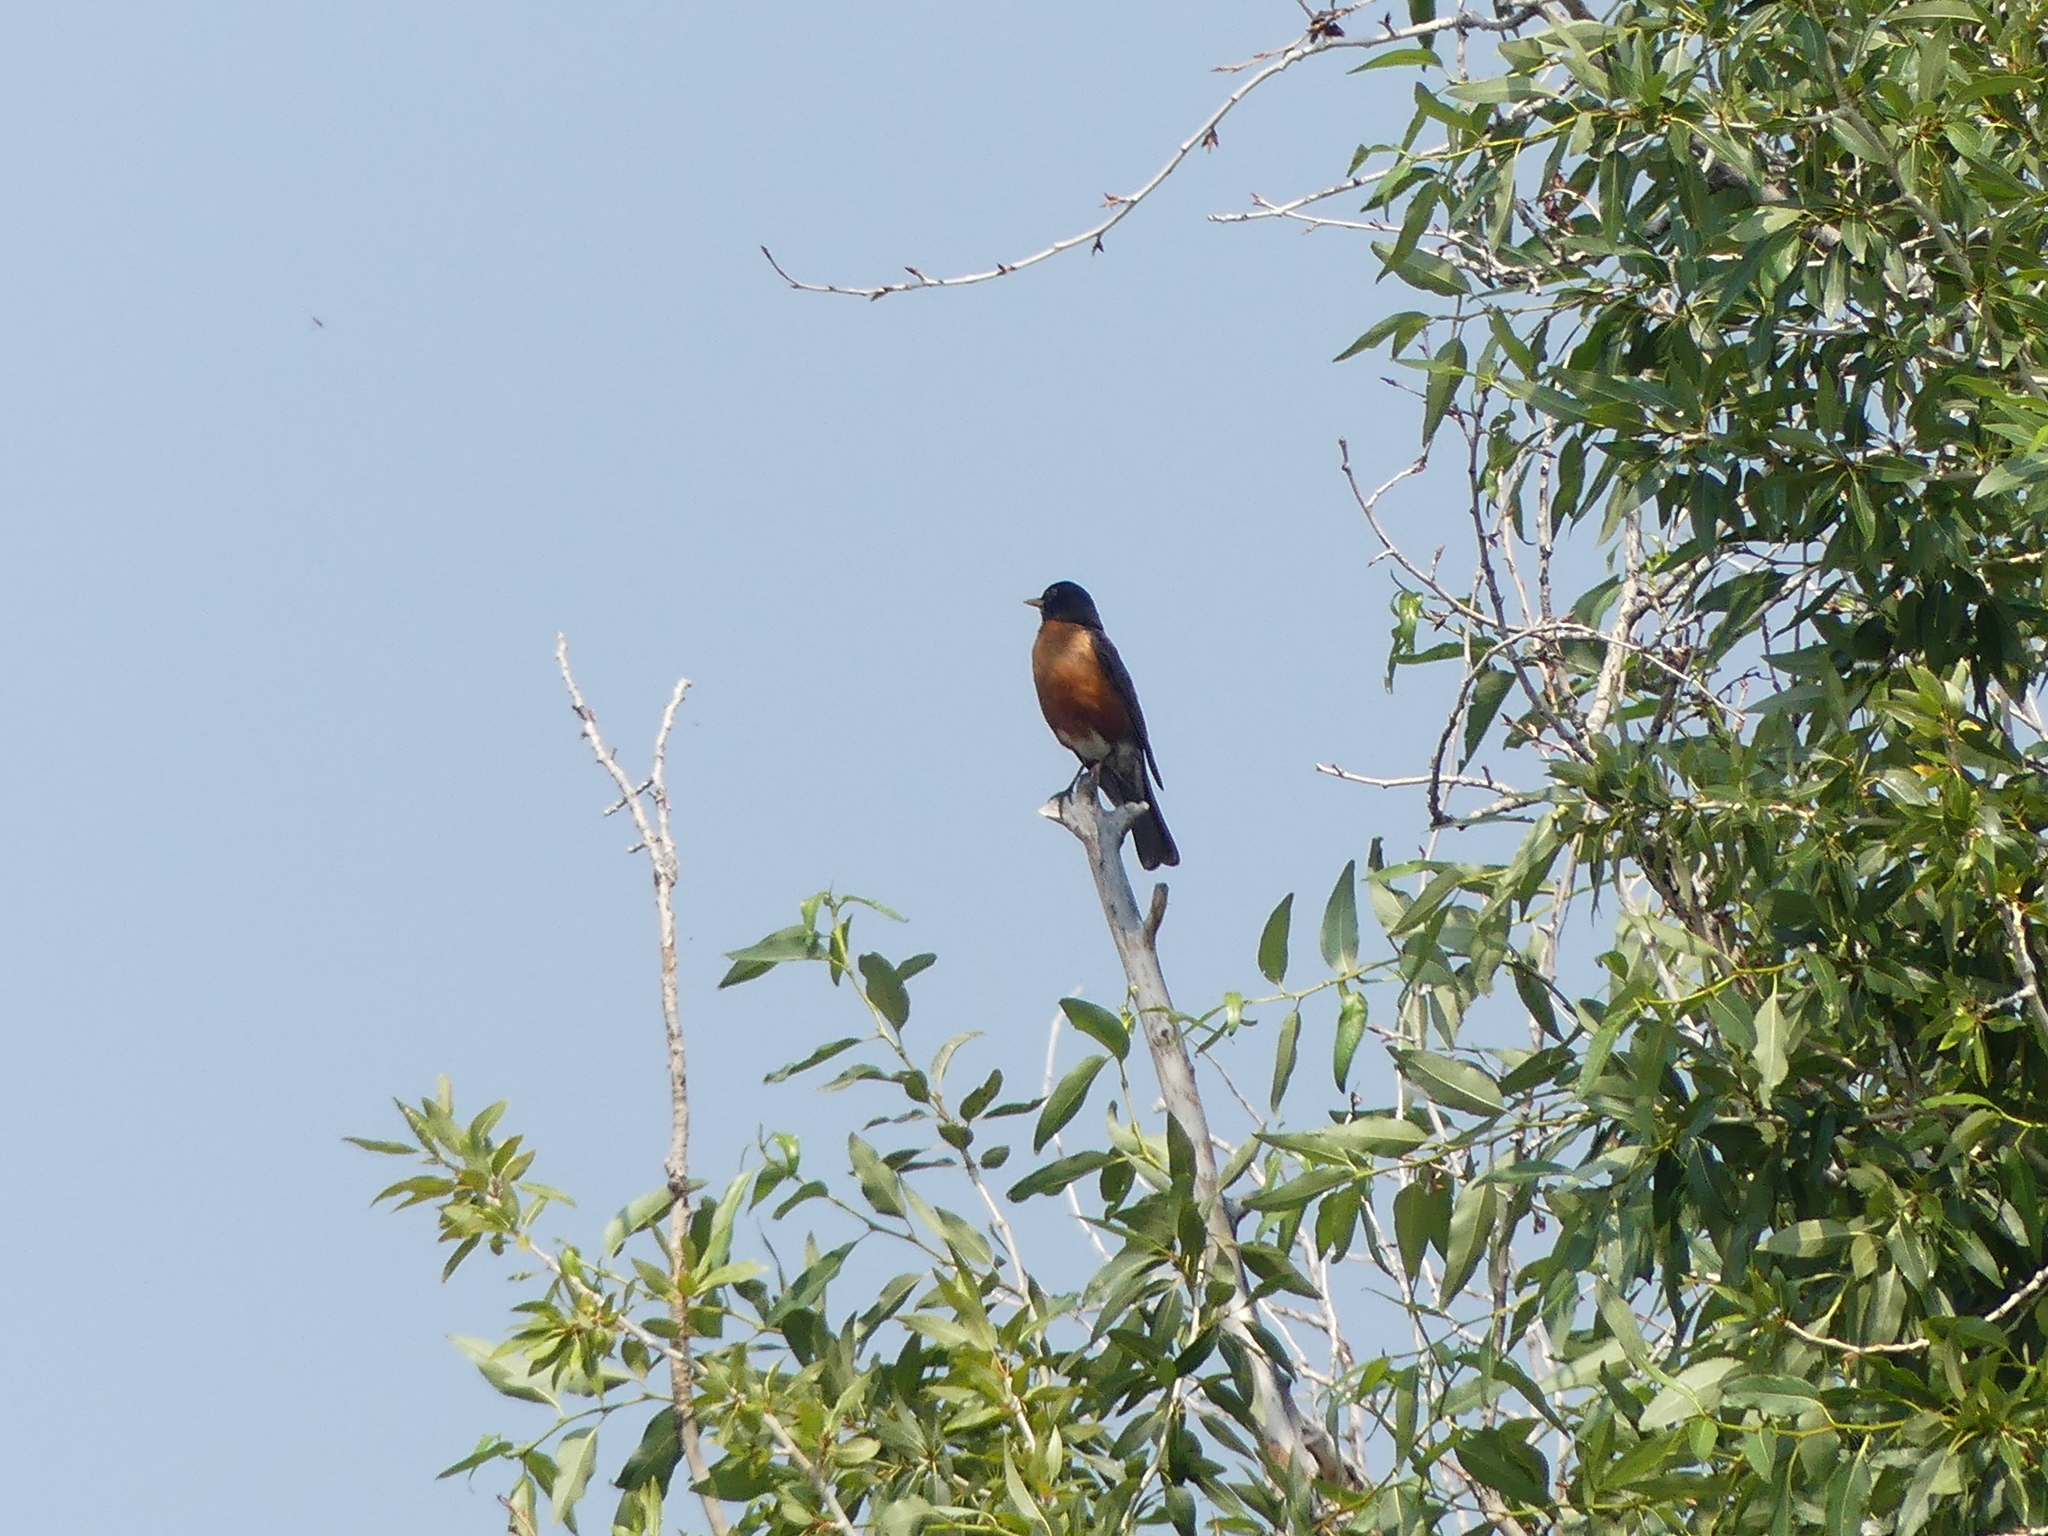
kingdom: Animalia
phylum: Chordata
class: Aves
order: Passeriformes
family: Turdidae
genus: Turdus
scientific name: Turdus migratorius
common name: American robin
